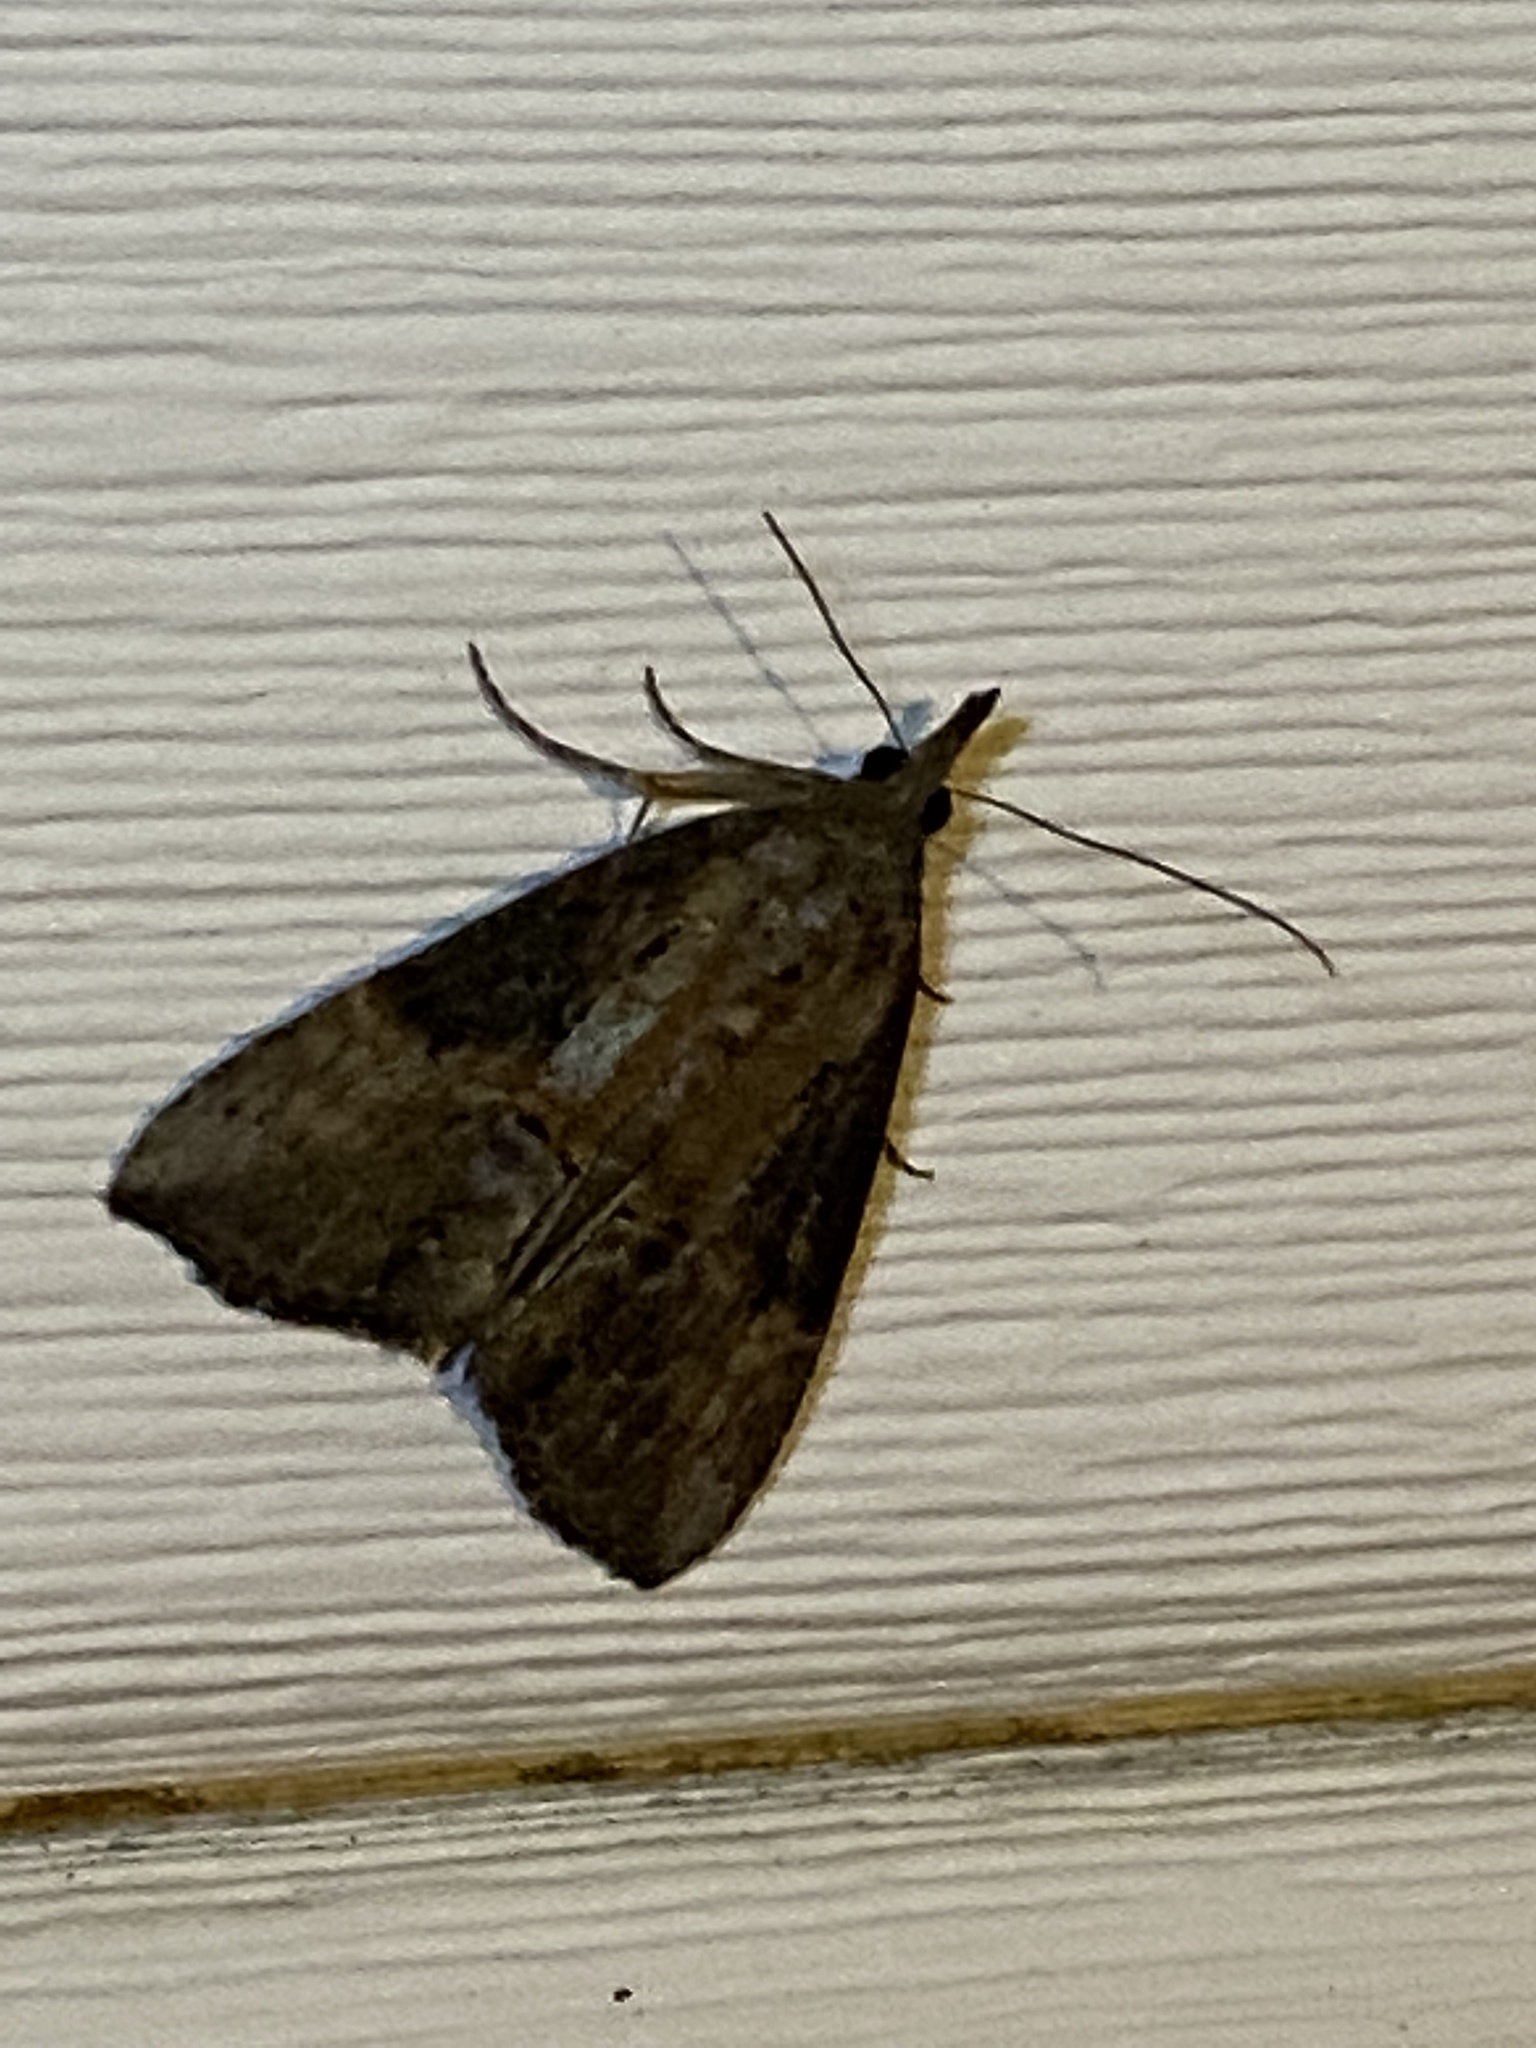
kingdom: Animalia
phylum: Arthropoda
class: Insecta
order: Lepidoptera
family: Erebidae
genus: Hypena
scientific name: Hypena scabra
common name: Green cloverworm
